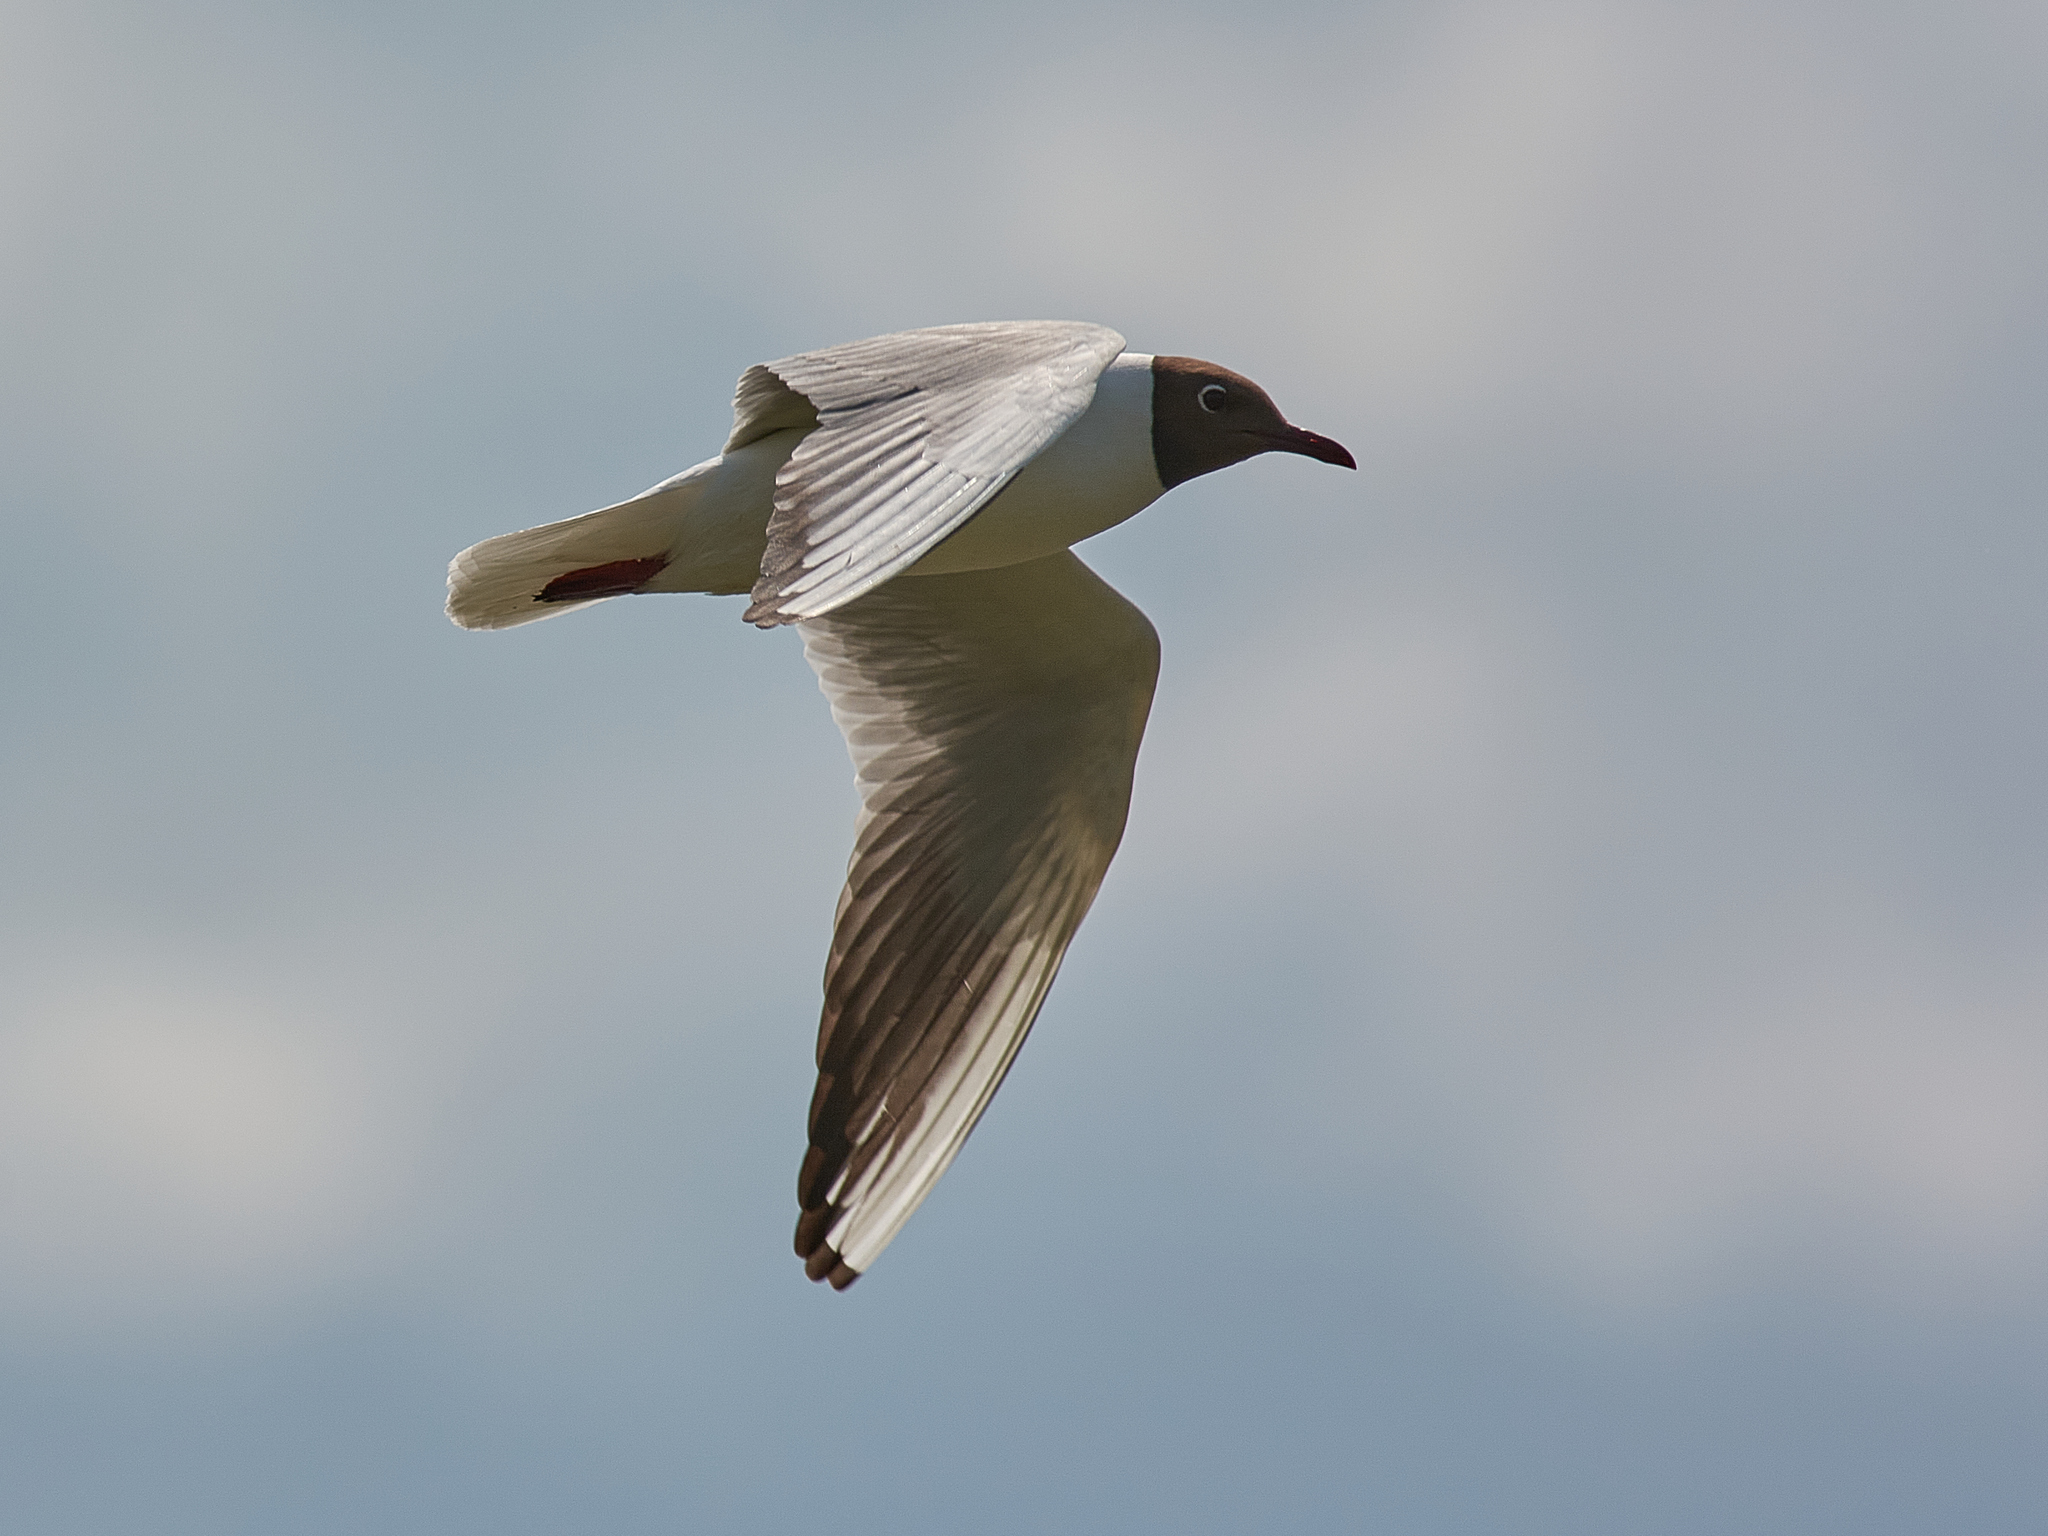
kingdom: Animalia
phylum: Chordata
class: Aves
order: Charadriiformes
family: Laridae
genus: Chroicocephalus
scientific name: Chroicocephalus ridibundus
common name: Black-headed gull
